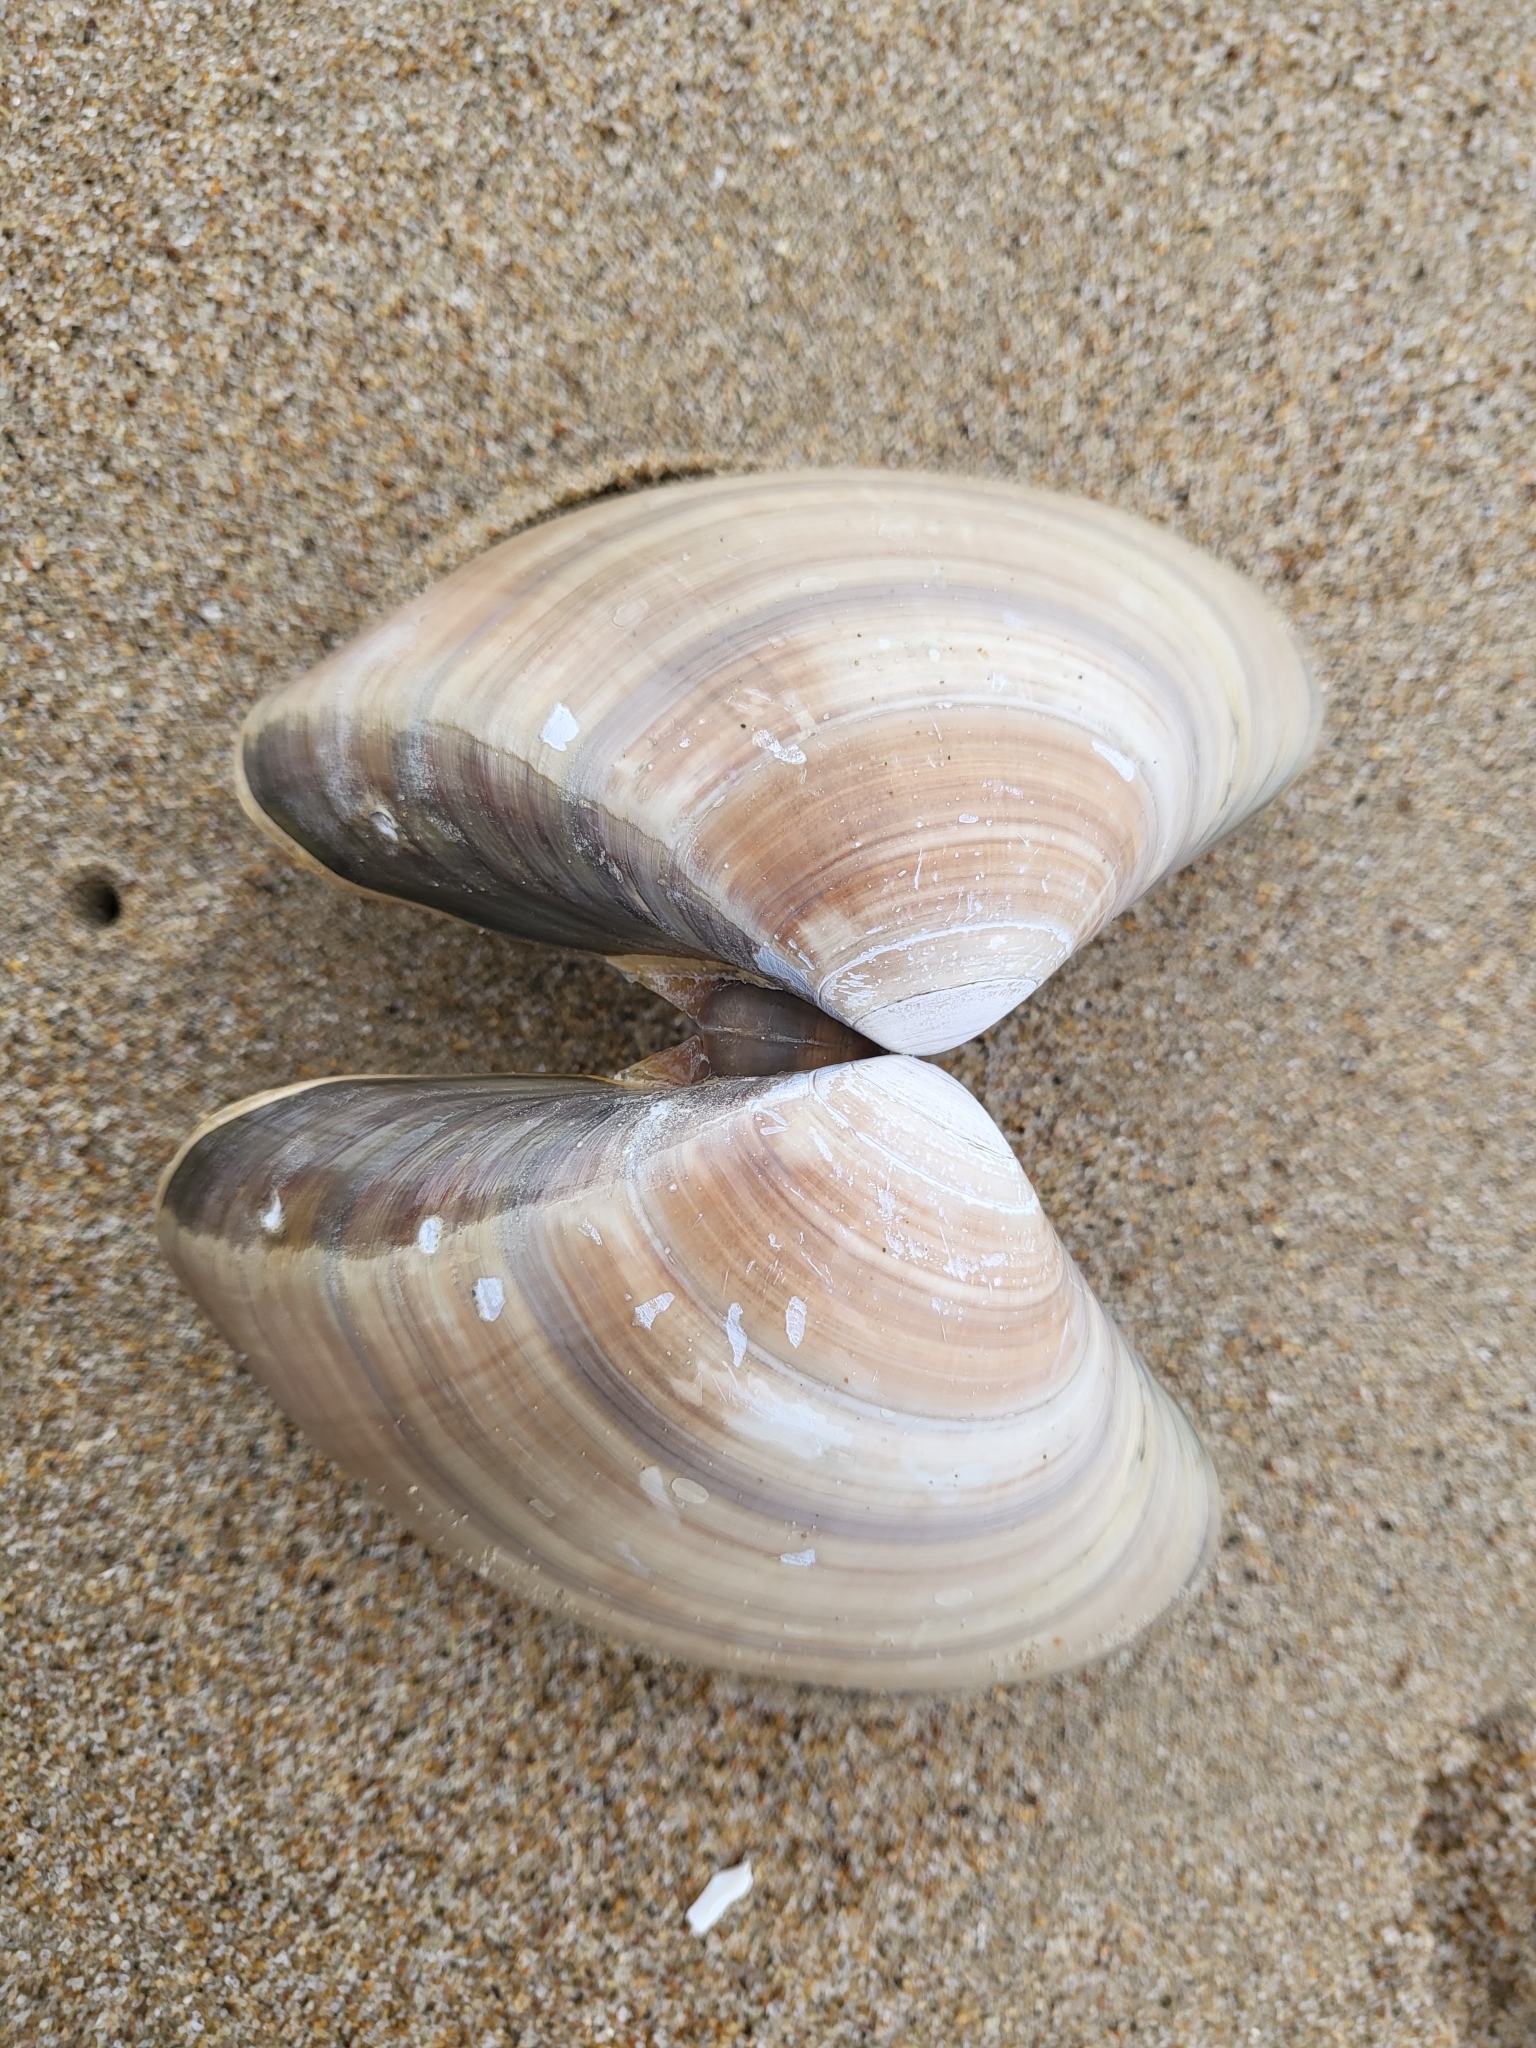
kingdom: Animalia
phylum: Mollusca
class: Bivalvia
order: Venerida
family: Veneridae
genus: Tivela
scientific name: Tivela stultorum
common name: Pismo clam
